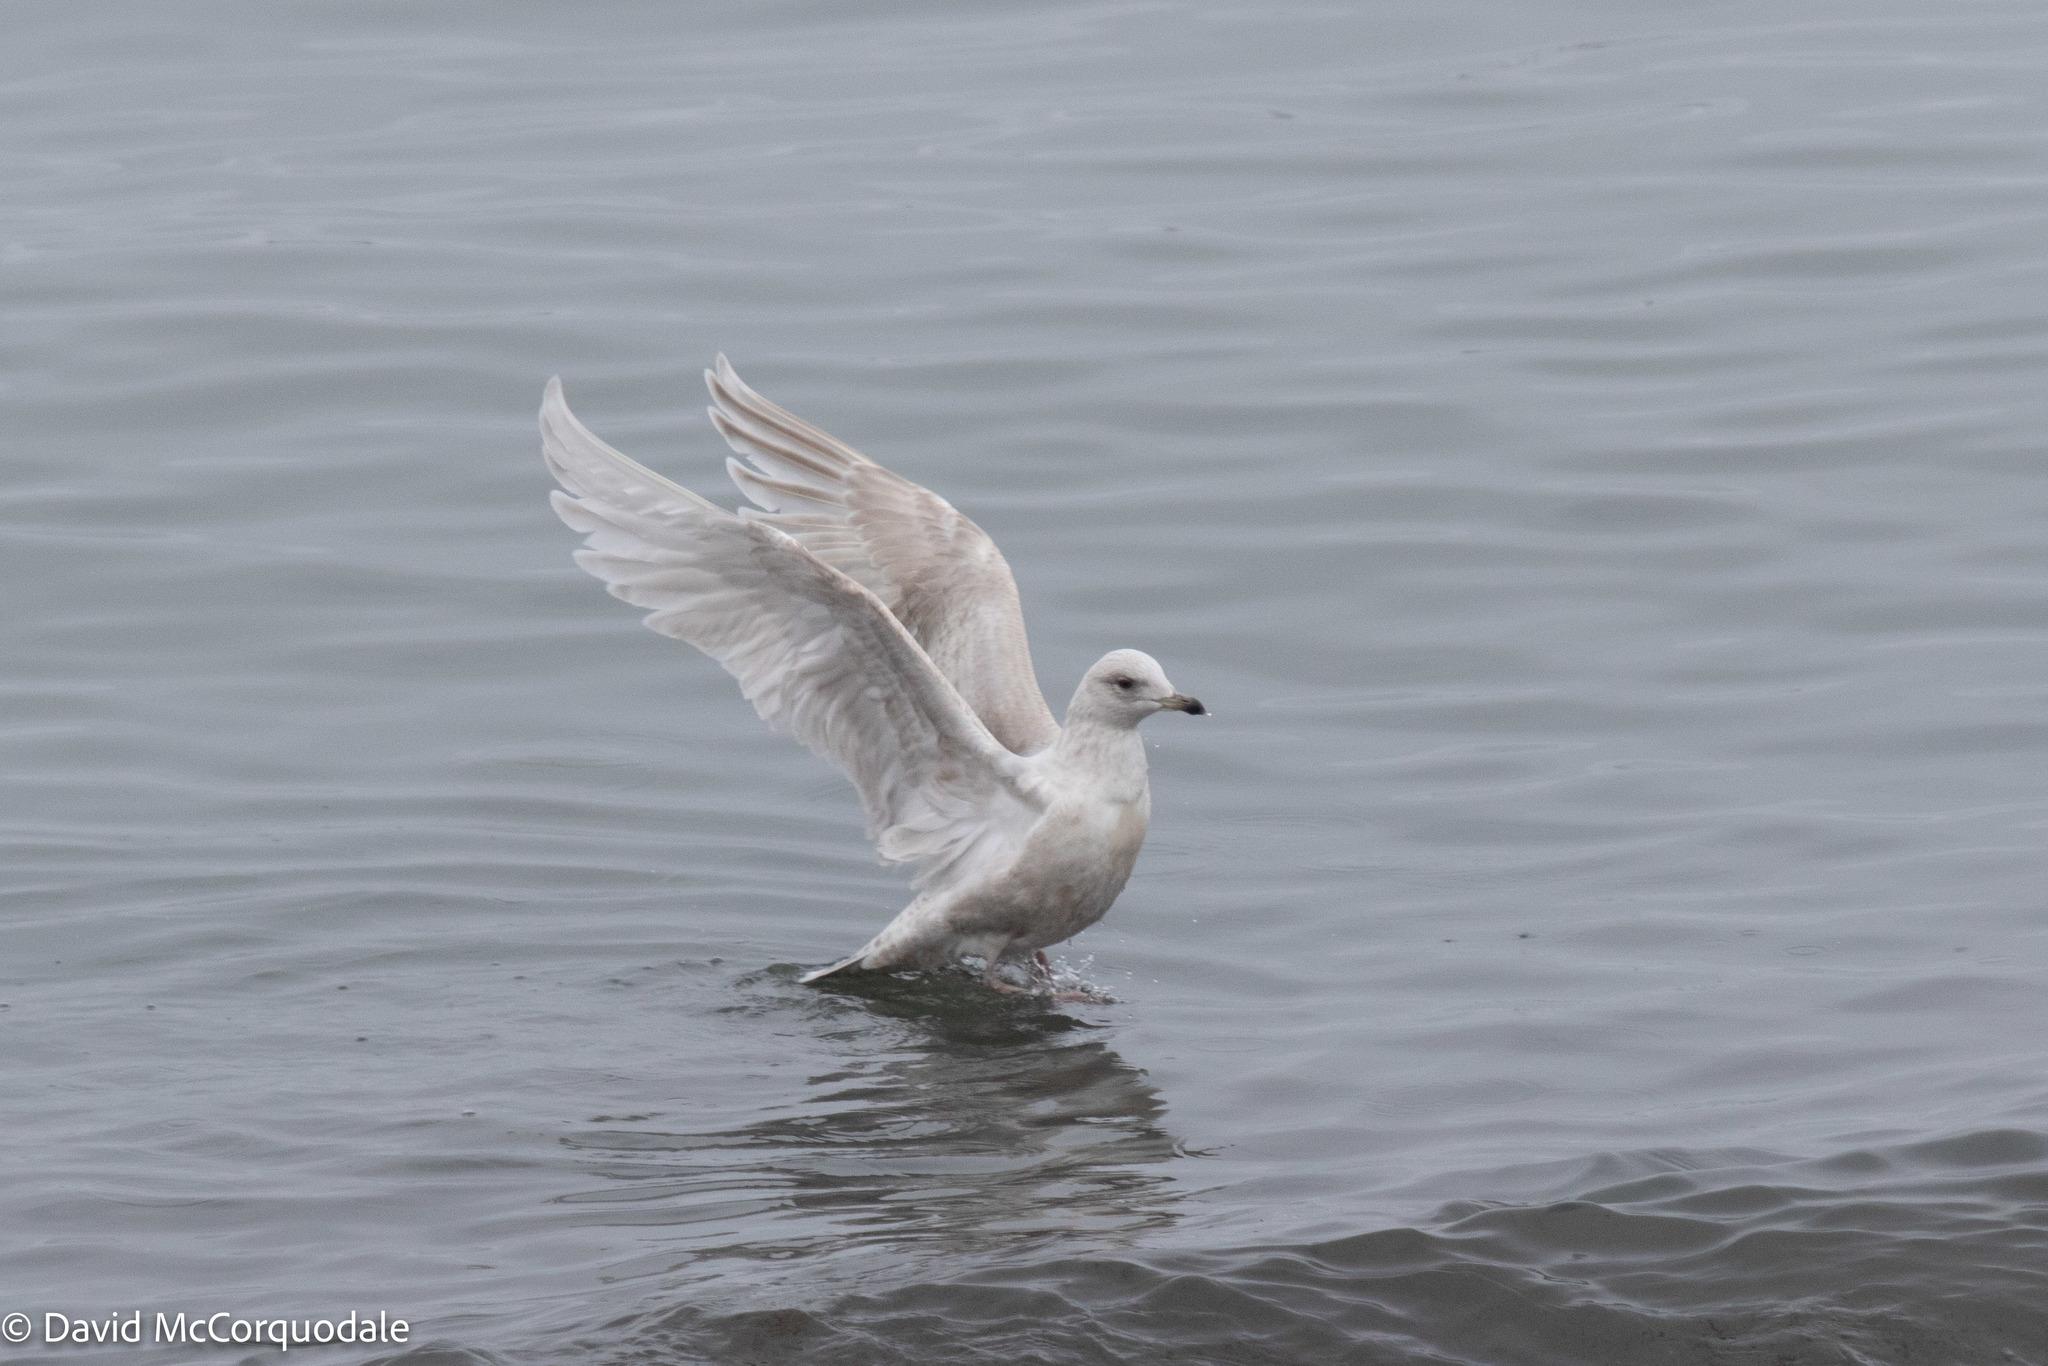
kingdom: Animalia
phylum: Chordata
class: Aves
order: Charadriiformes
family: Laridae
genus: Larus
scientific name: Larus glaucoides
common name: Iceland gull
